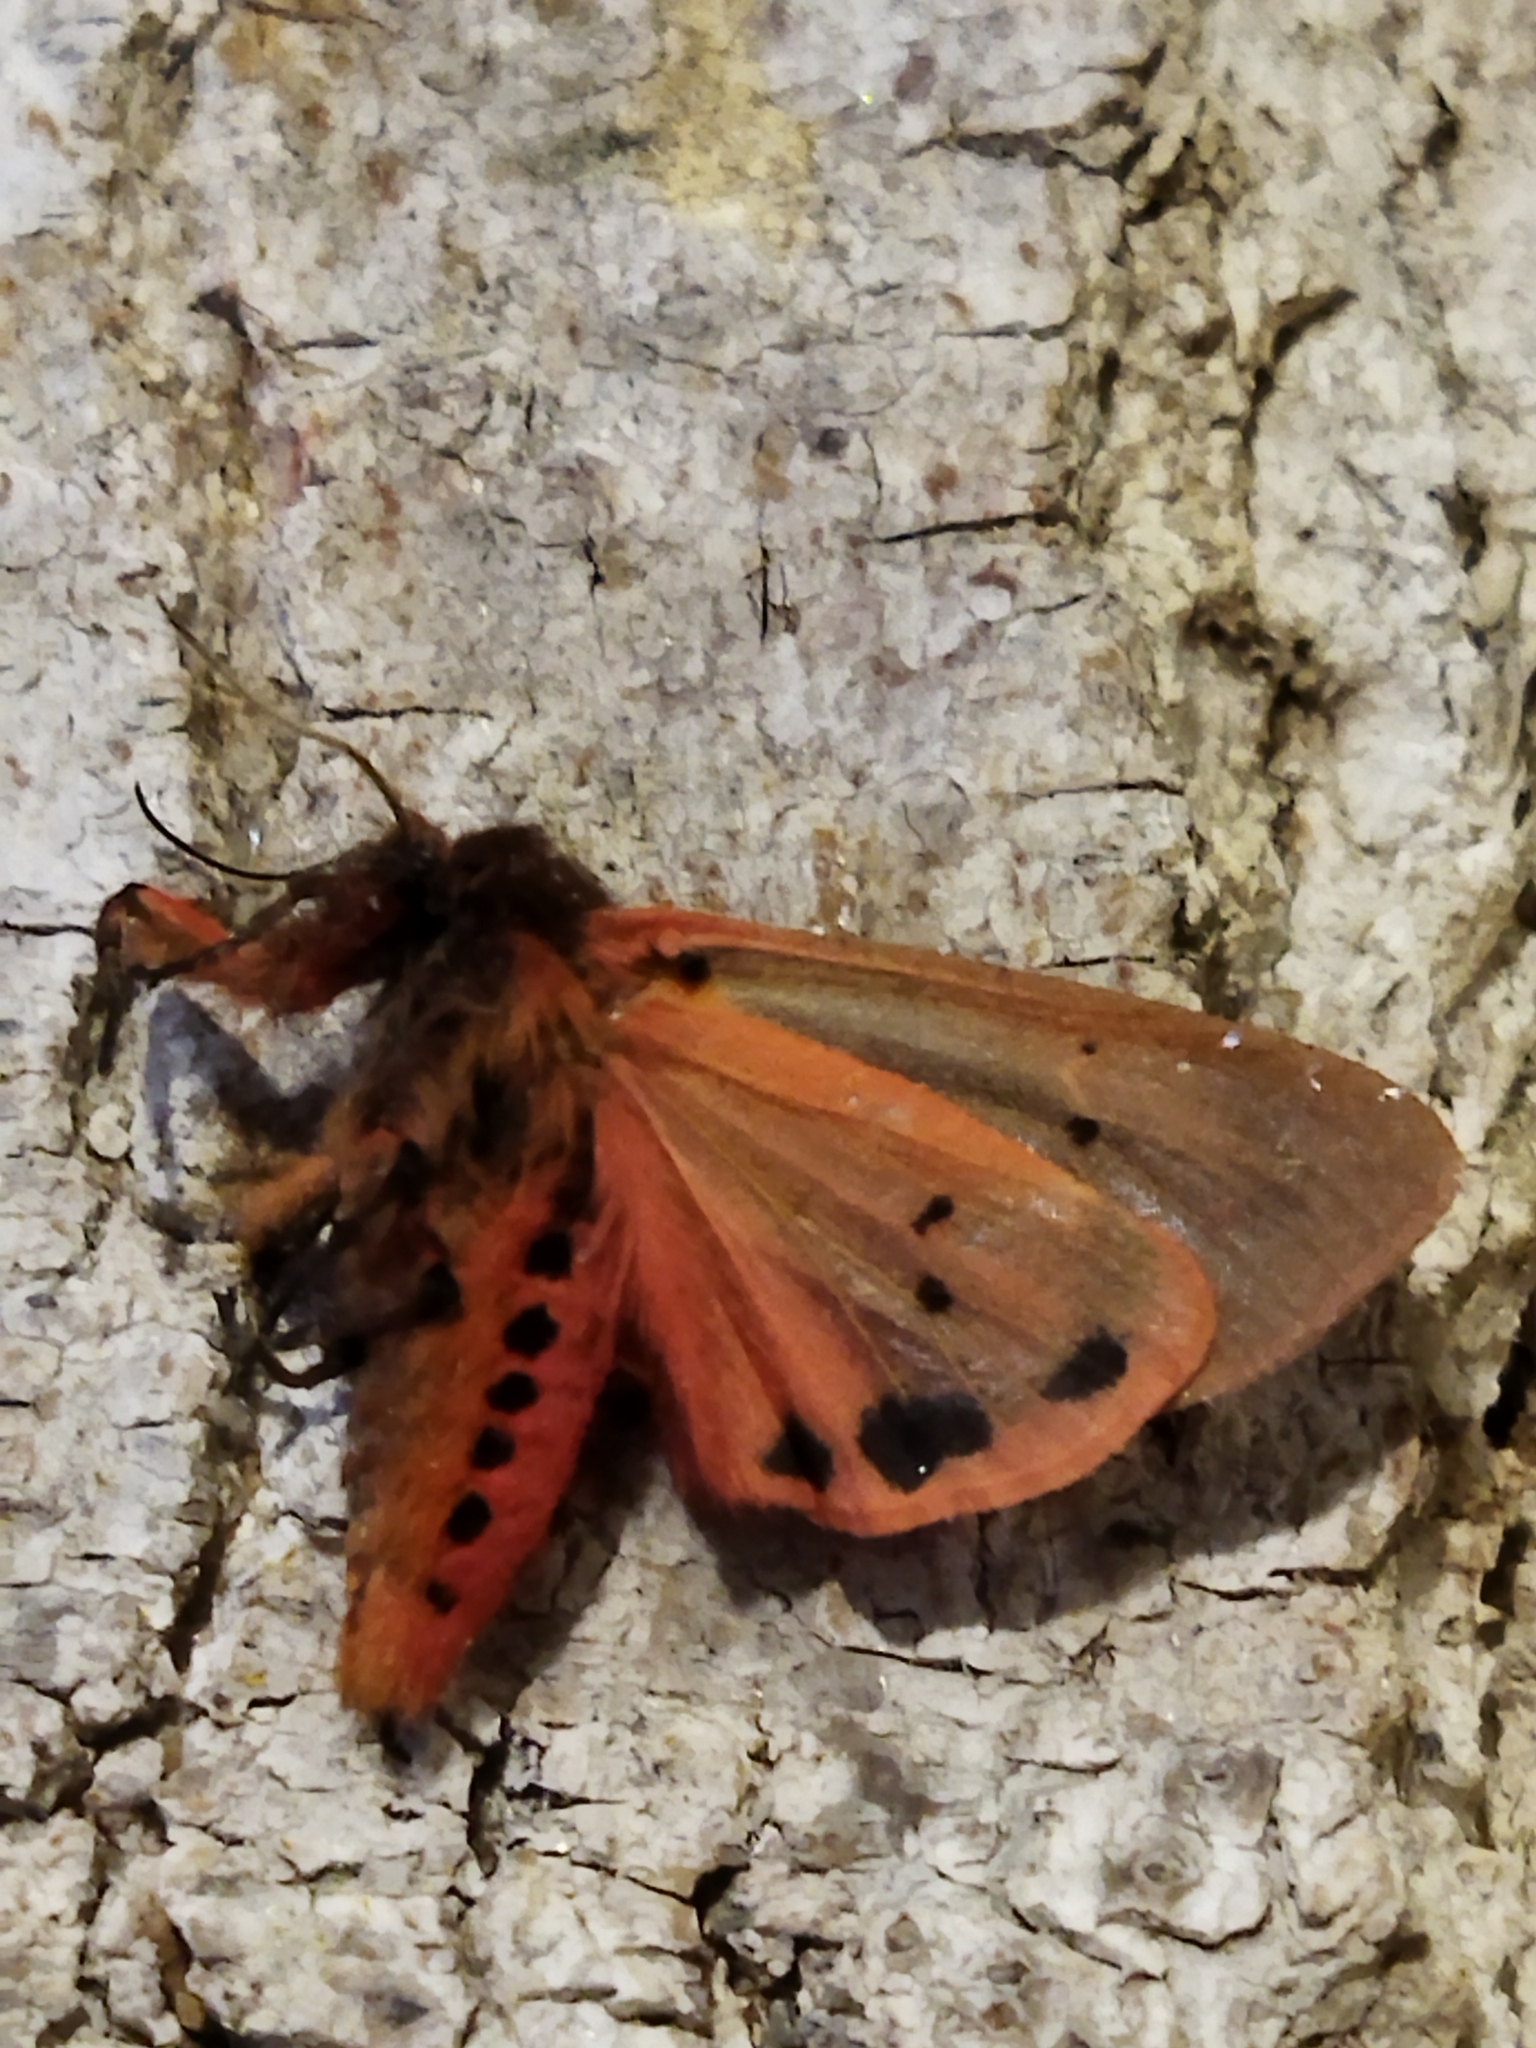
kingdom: Animalia
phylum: Arthropoda
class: Insecta
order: Lepidoptera
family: Erebidae
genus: Phragmatobia
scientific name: Phragmatobia fuliginosa
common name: Ruby tiger
